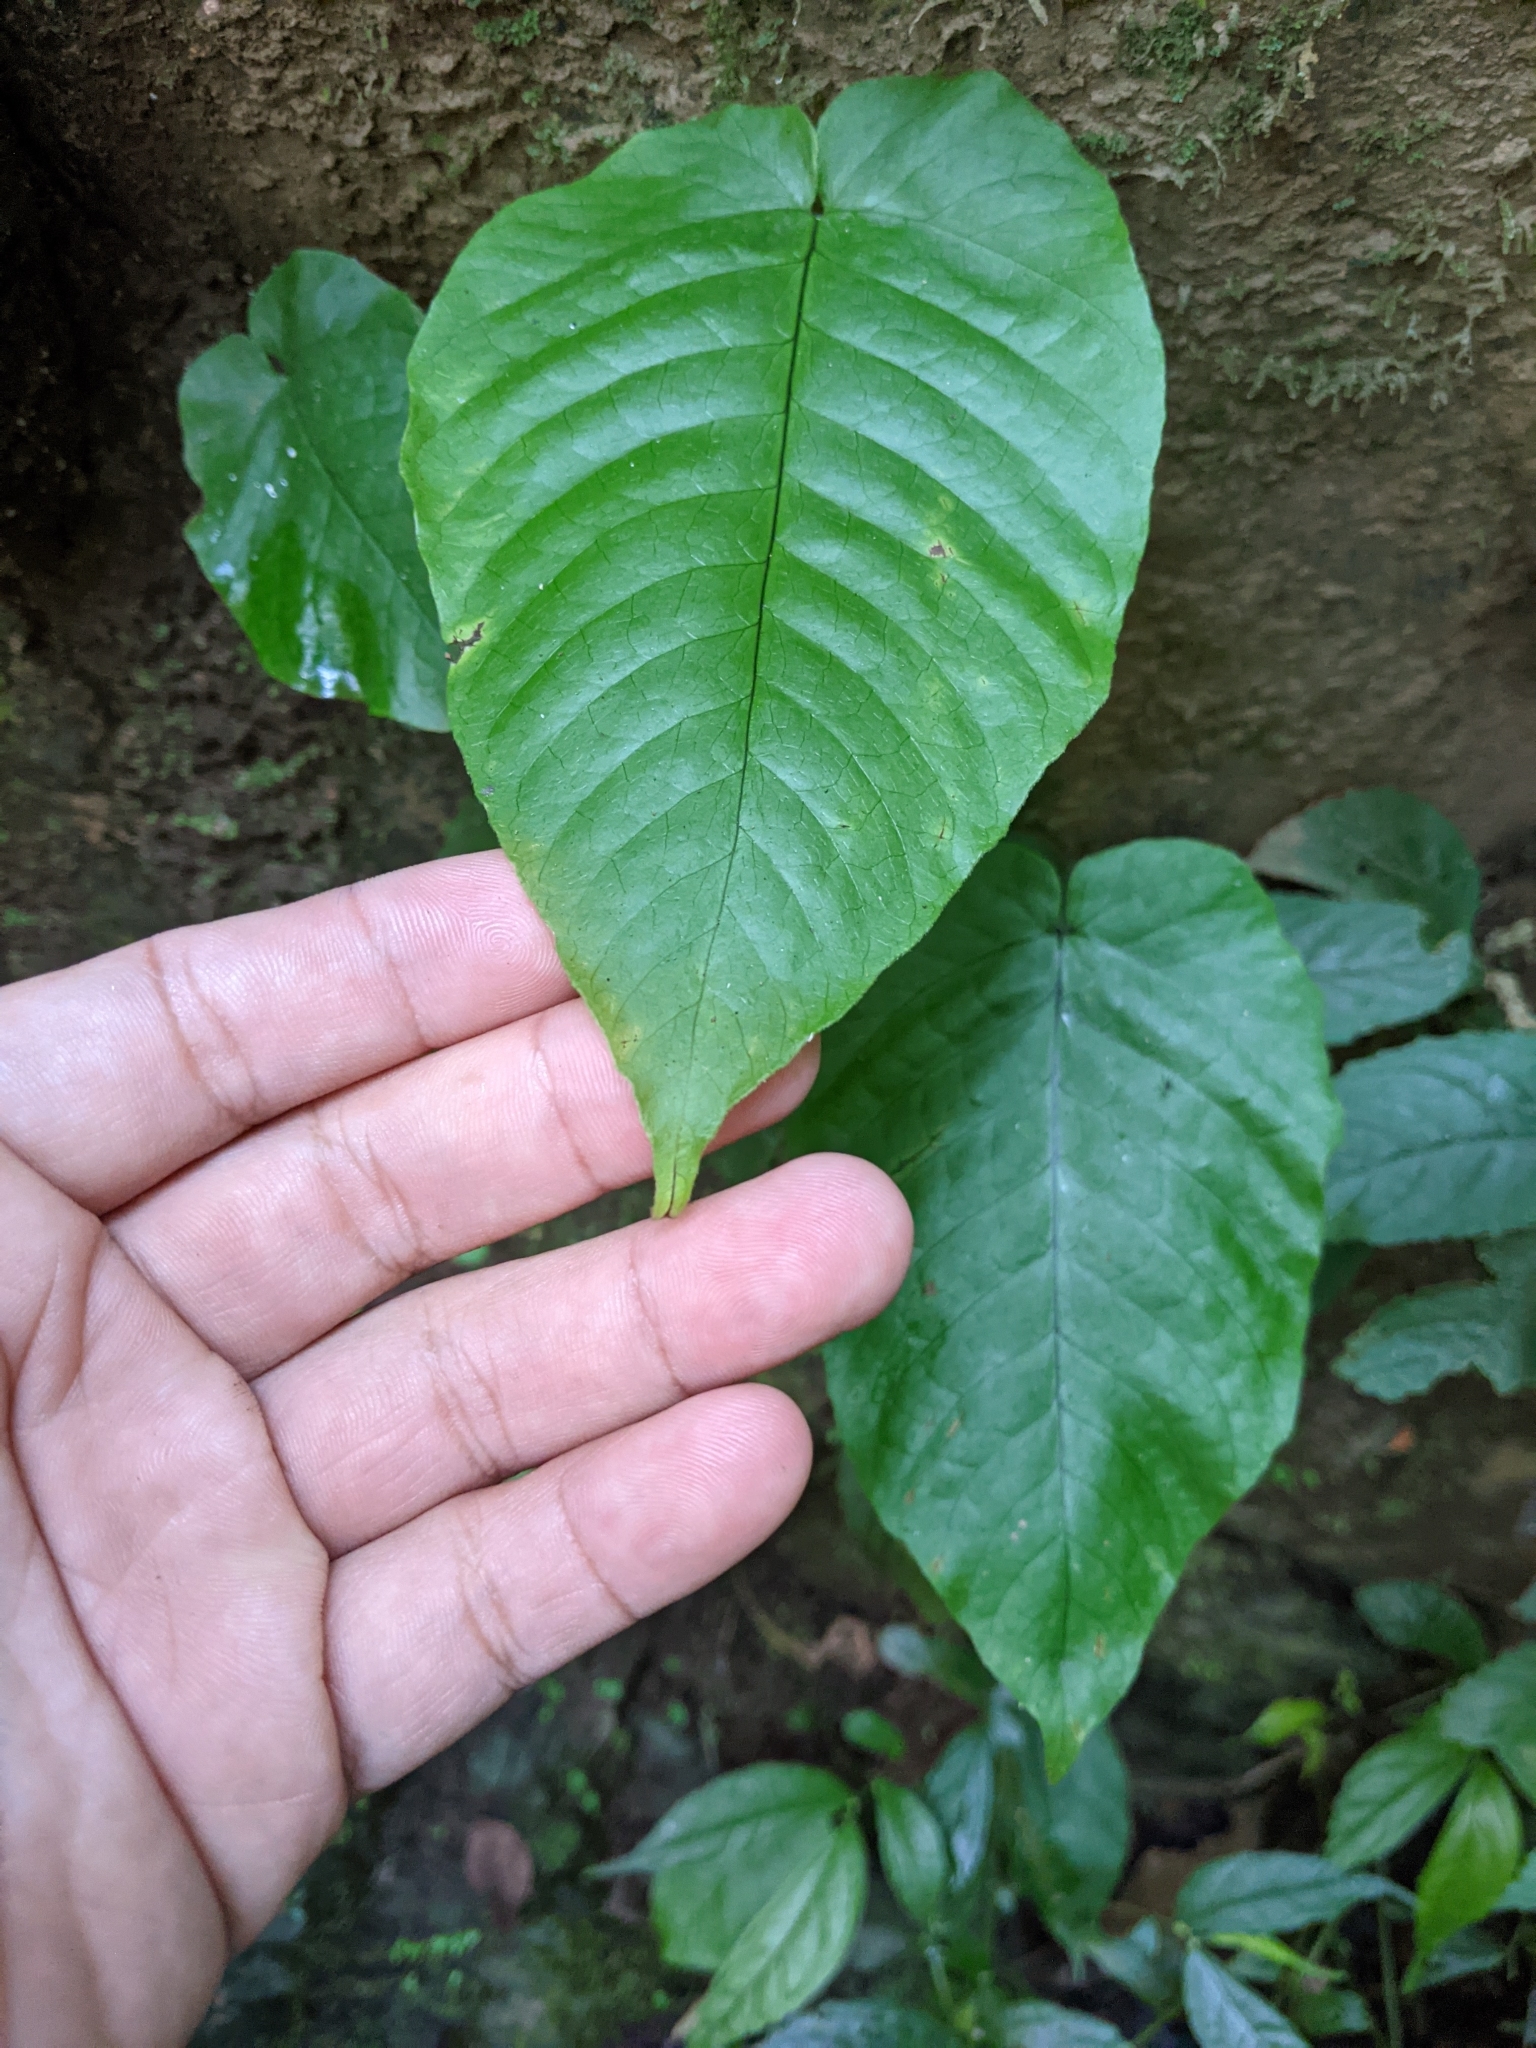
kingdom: Plantae
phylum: Tracheophyta
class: Polypodiopsida
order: Polypodiales
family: Tectariaceae
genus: Tectaria
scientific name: Tectaria simonsii
